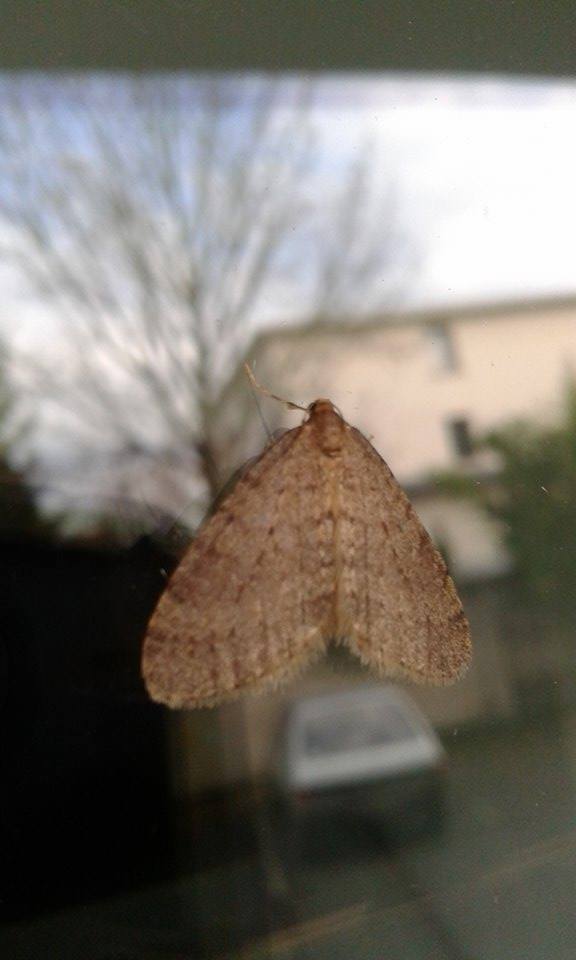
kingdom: Animalia
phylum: Arthropoda
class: Insecta
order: Lepidoptera
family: Geometridae
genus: Operophtera
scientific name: Operophtera brumata
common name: Winter moth
